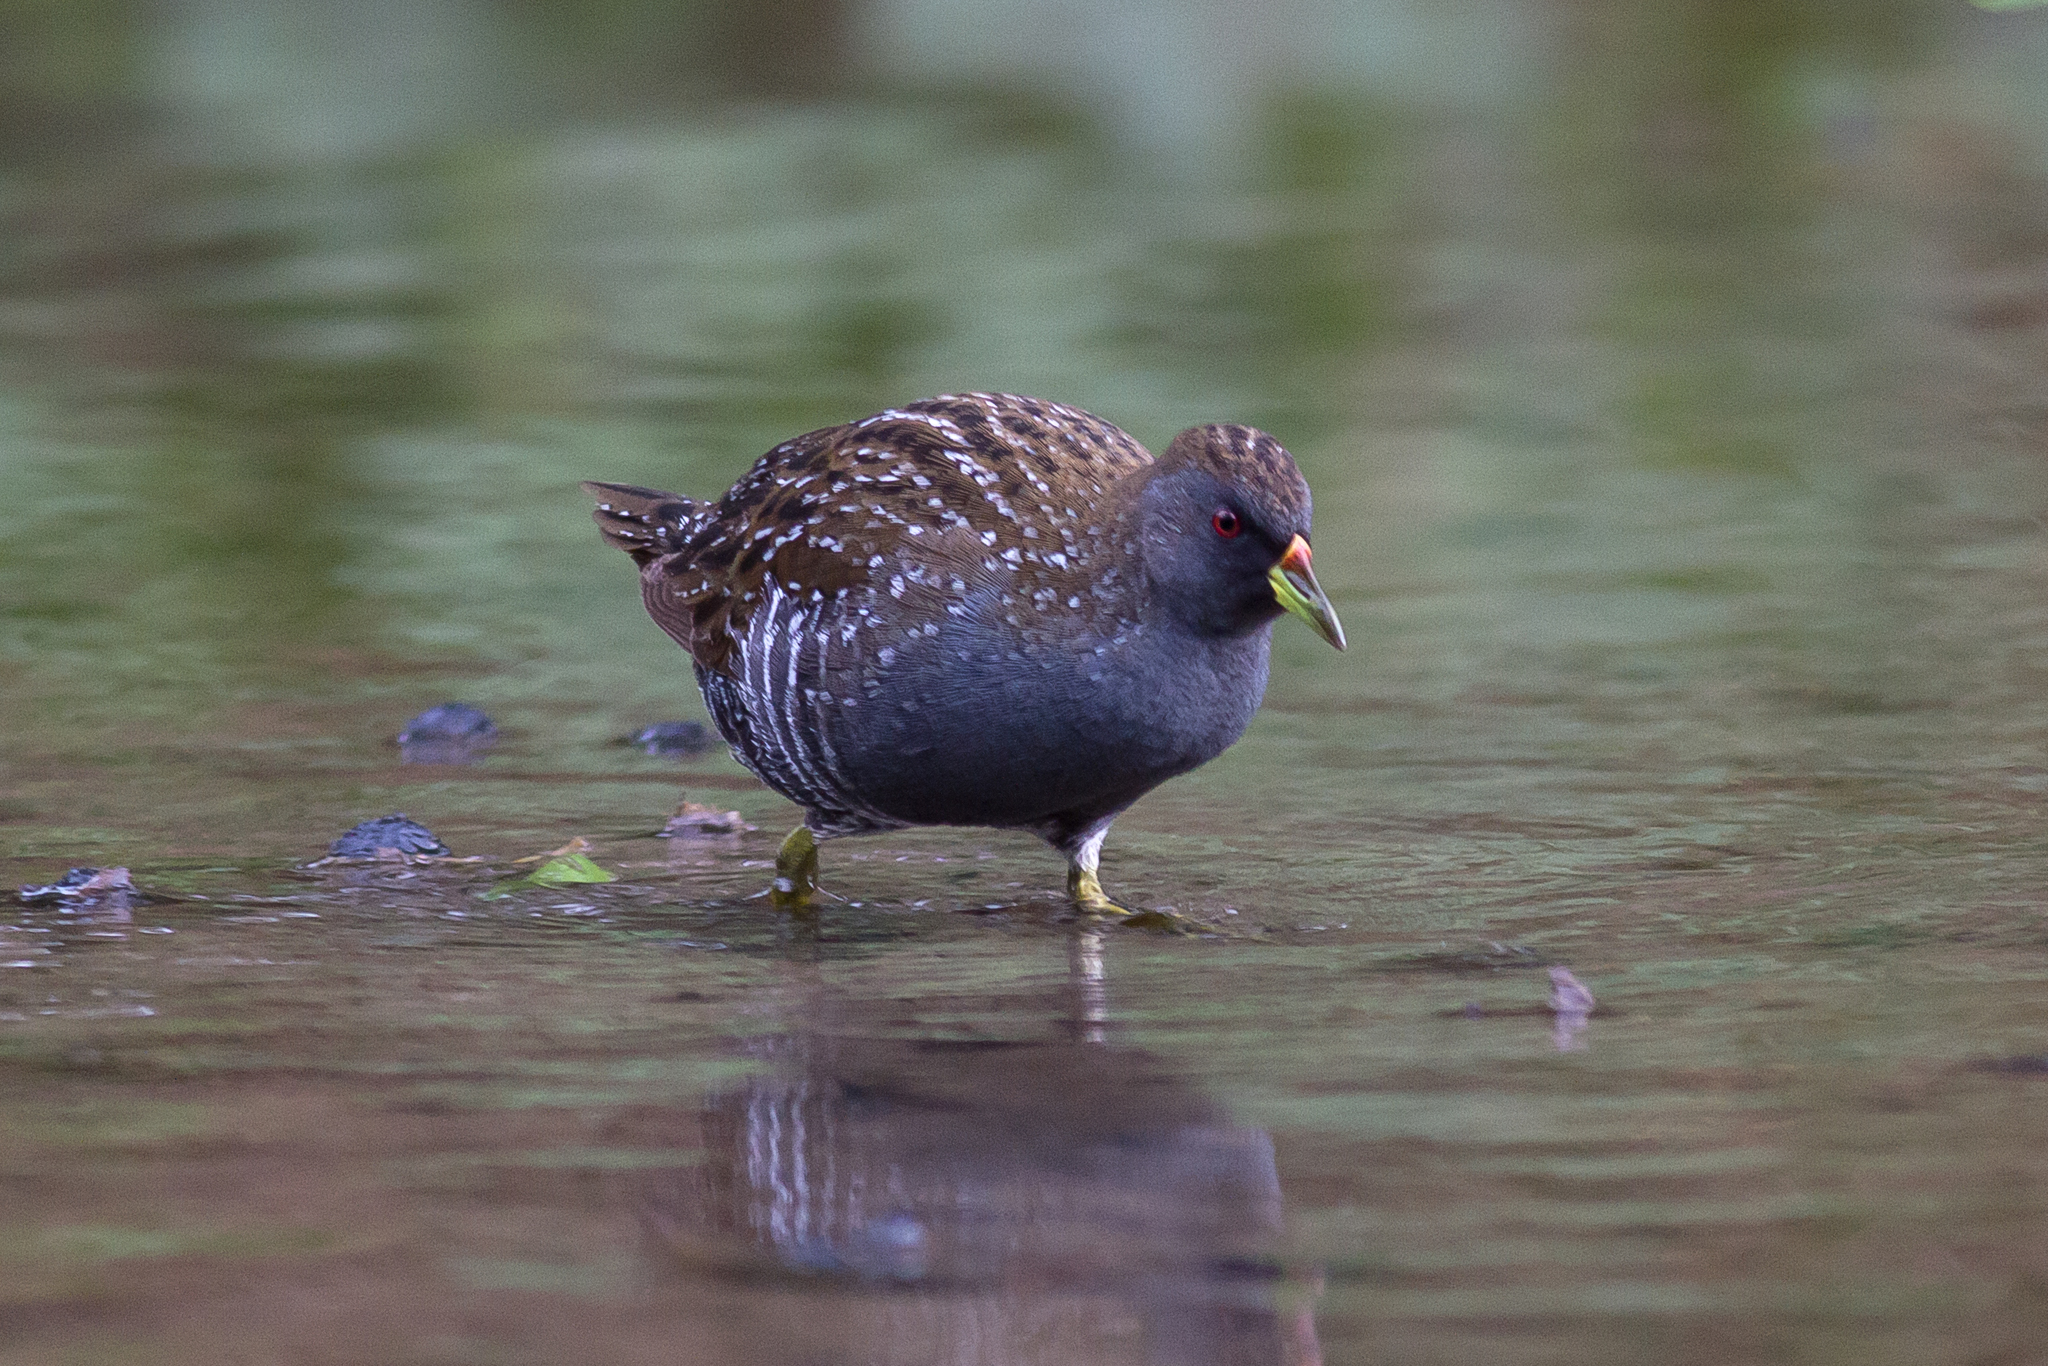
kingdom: Animalia
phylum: Chordata
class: Aves
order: Gruiformes
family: Rallidae
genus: Porzana
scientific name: Porzana fluminea
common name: Australian crake
